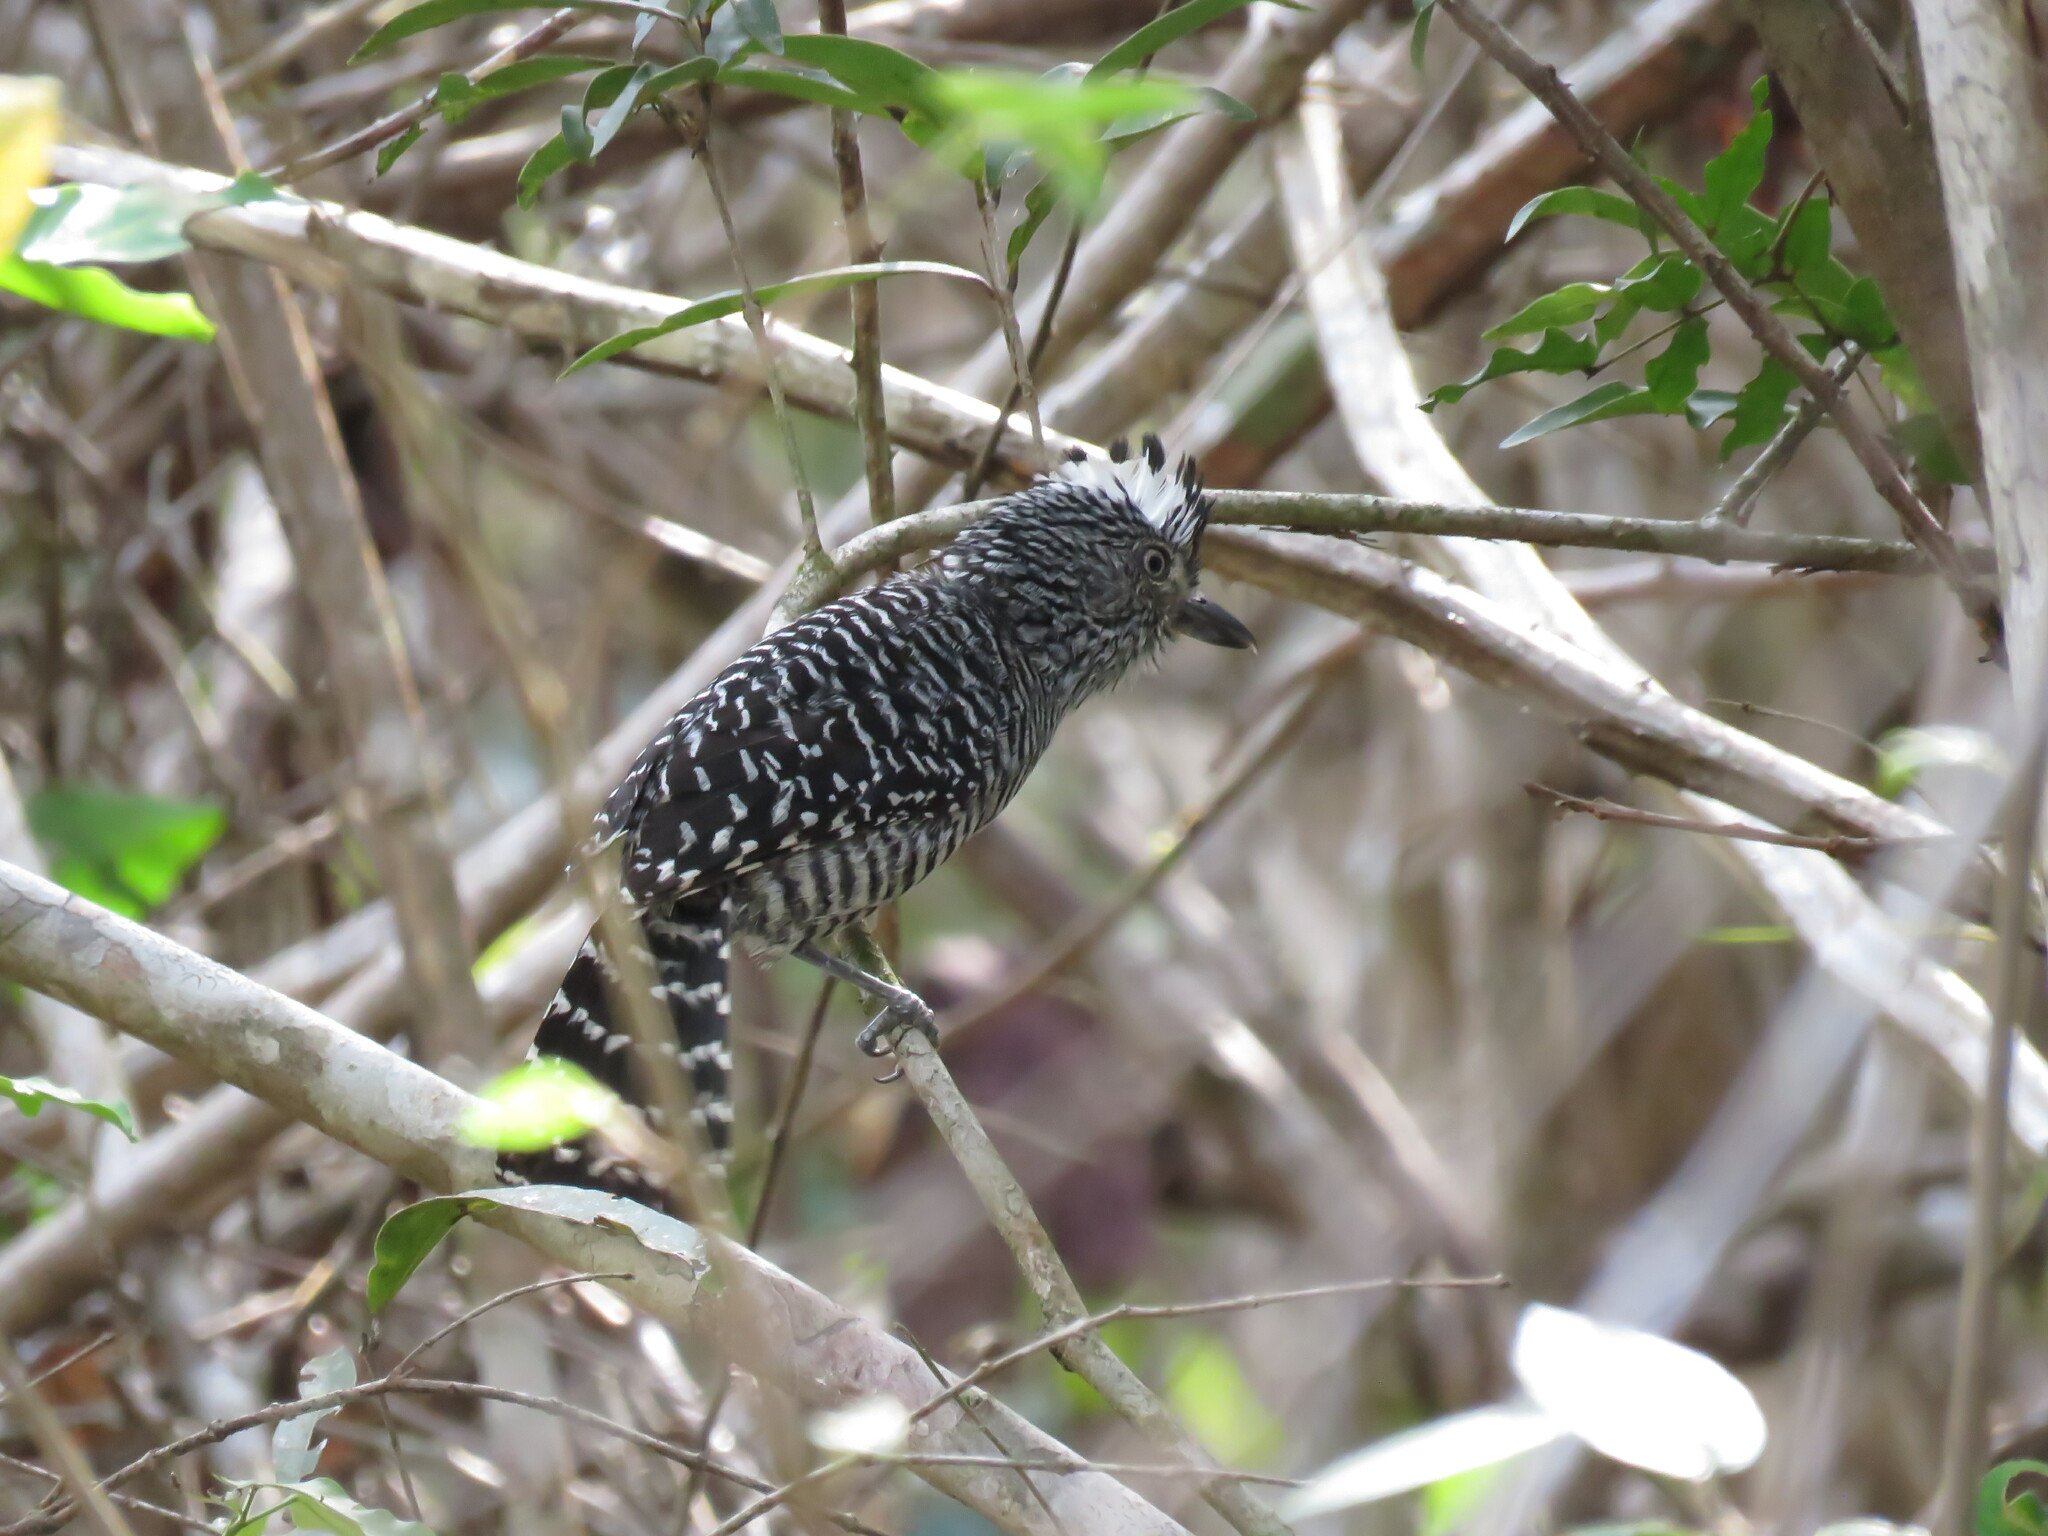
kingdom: Animalia
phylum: Chordata
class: Aves
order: Passeriformes
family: Thamnophilidae
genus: Thamnophilus
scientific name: Thamnophilus doliatus
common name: Barred antshrike
